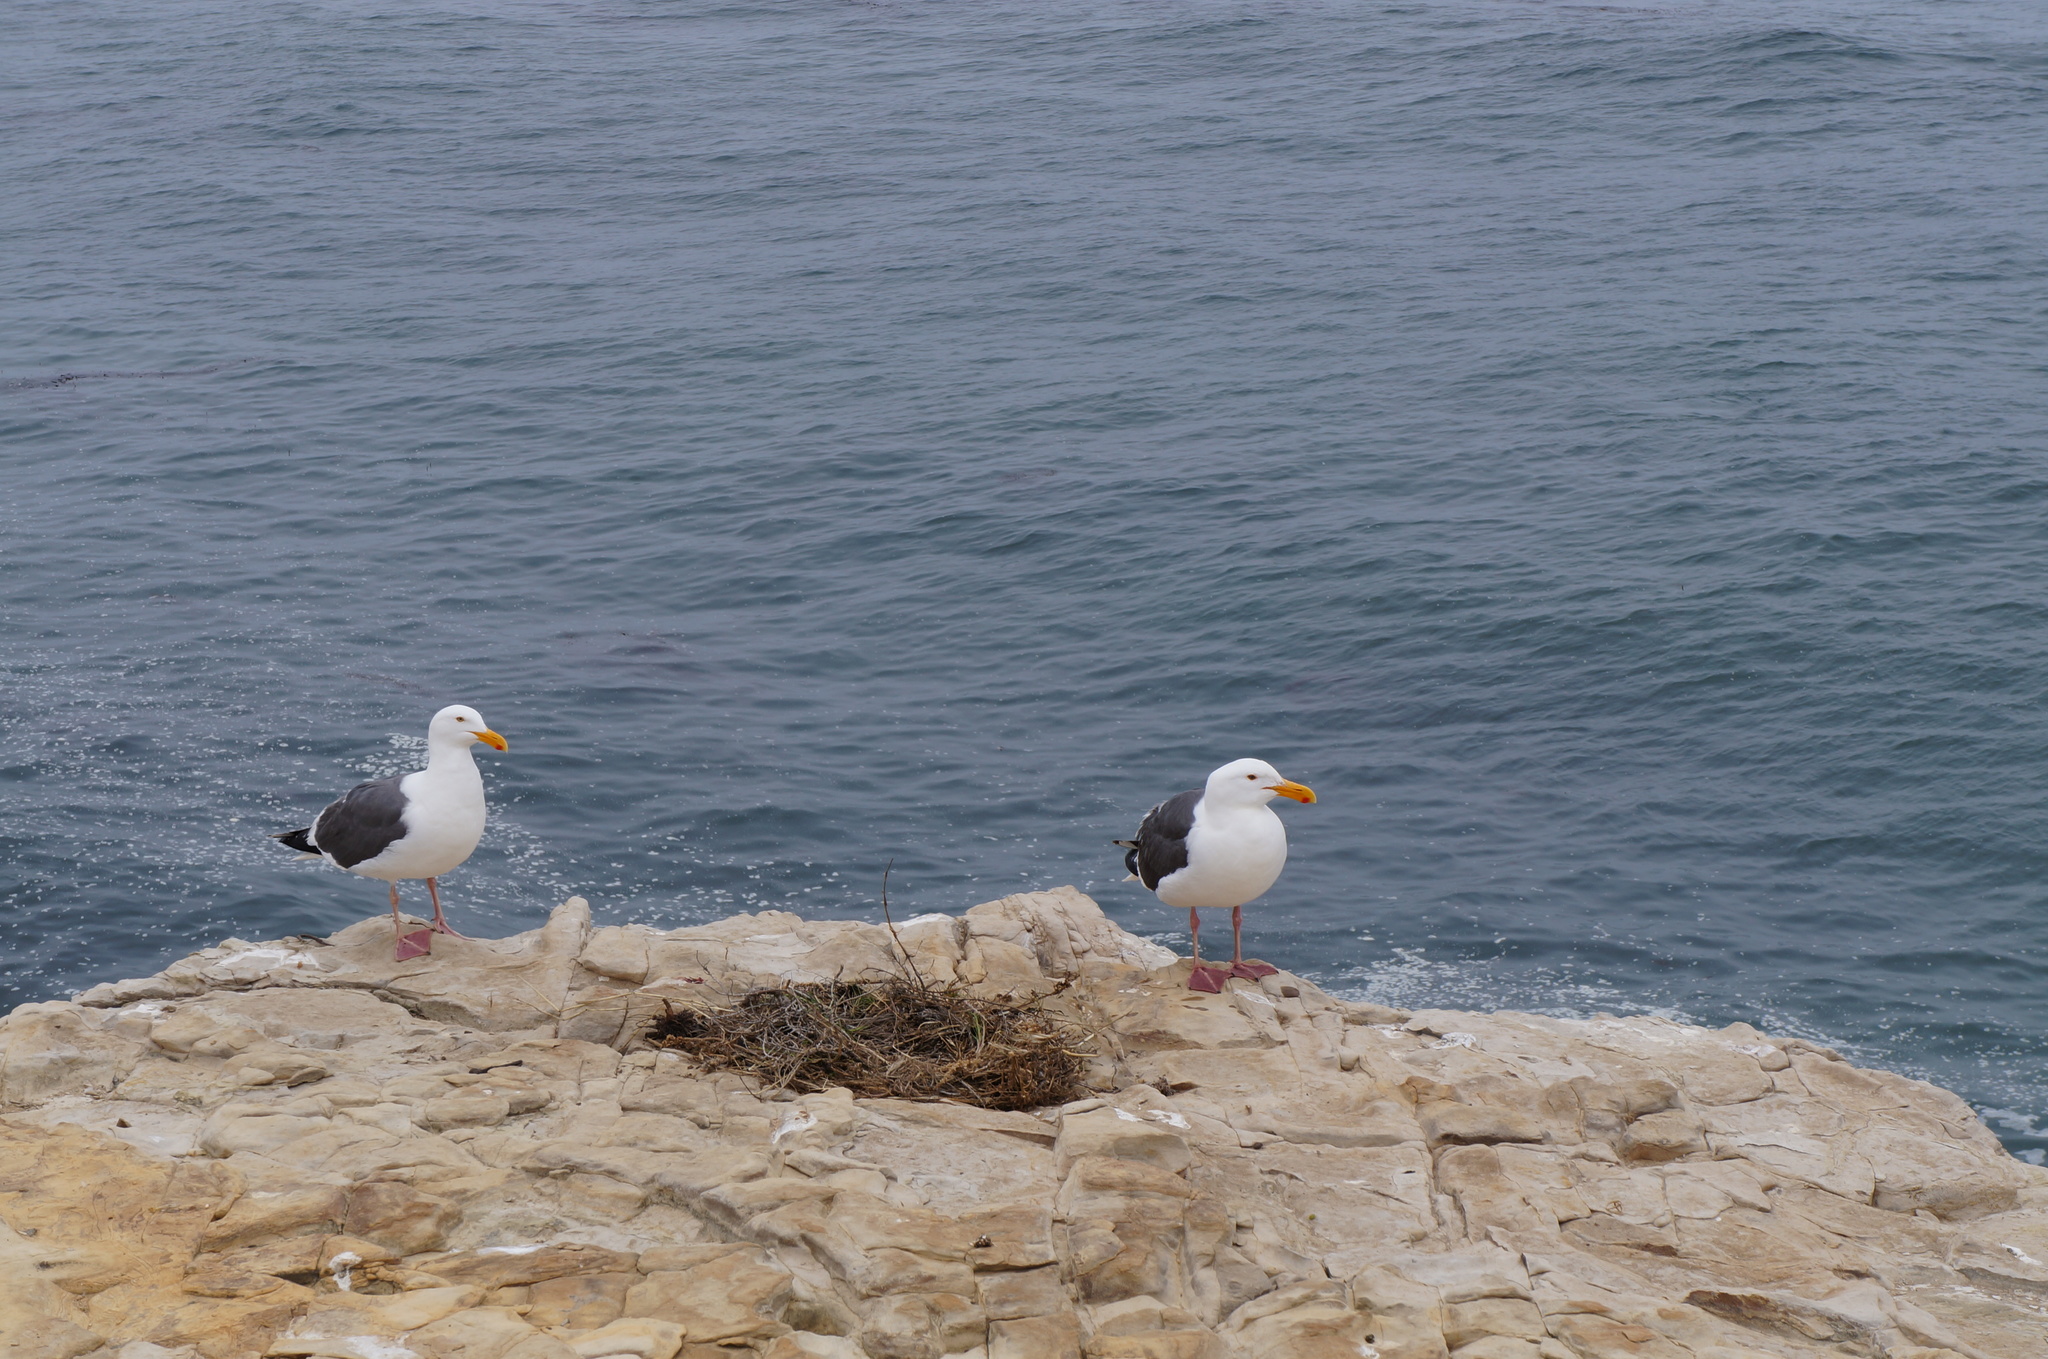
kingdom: Animalia
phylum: Chordata
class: Aves
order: Charadriiformes
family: Laridae
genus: Larus
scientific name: Larus occidentalis
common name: Western gull
